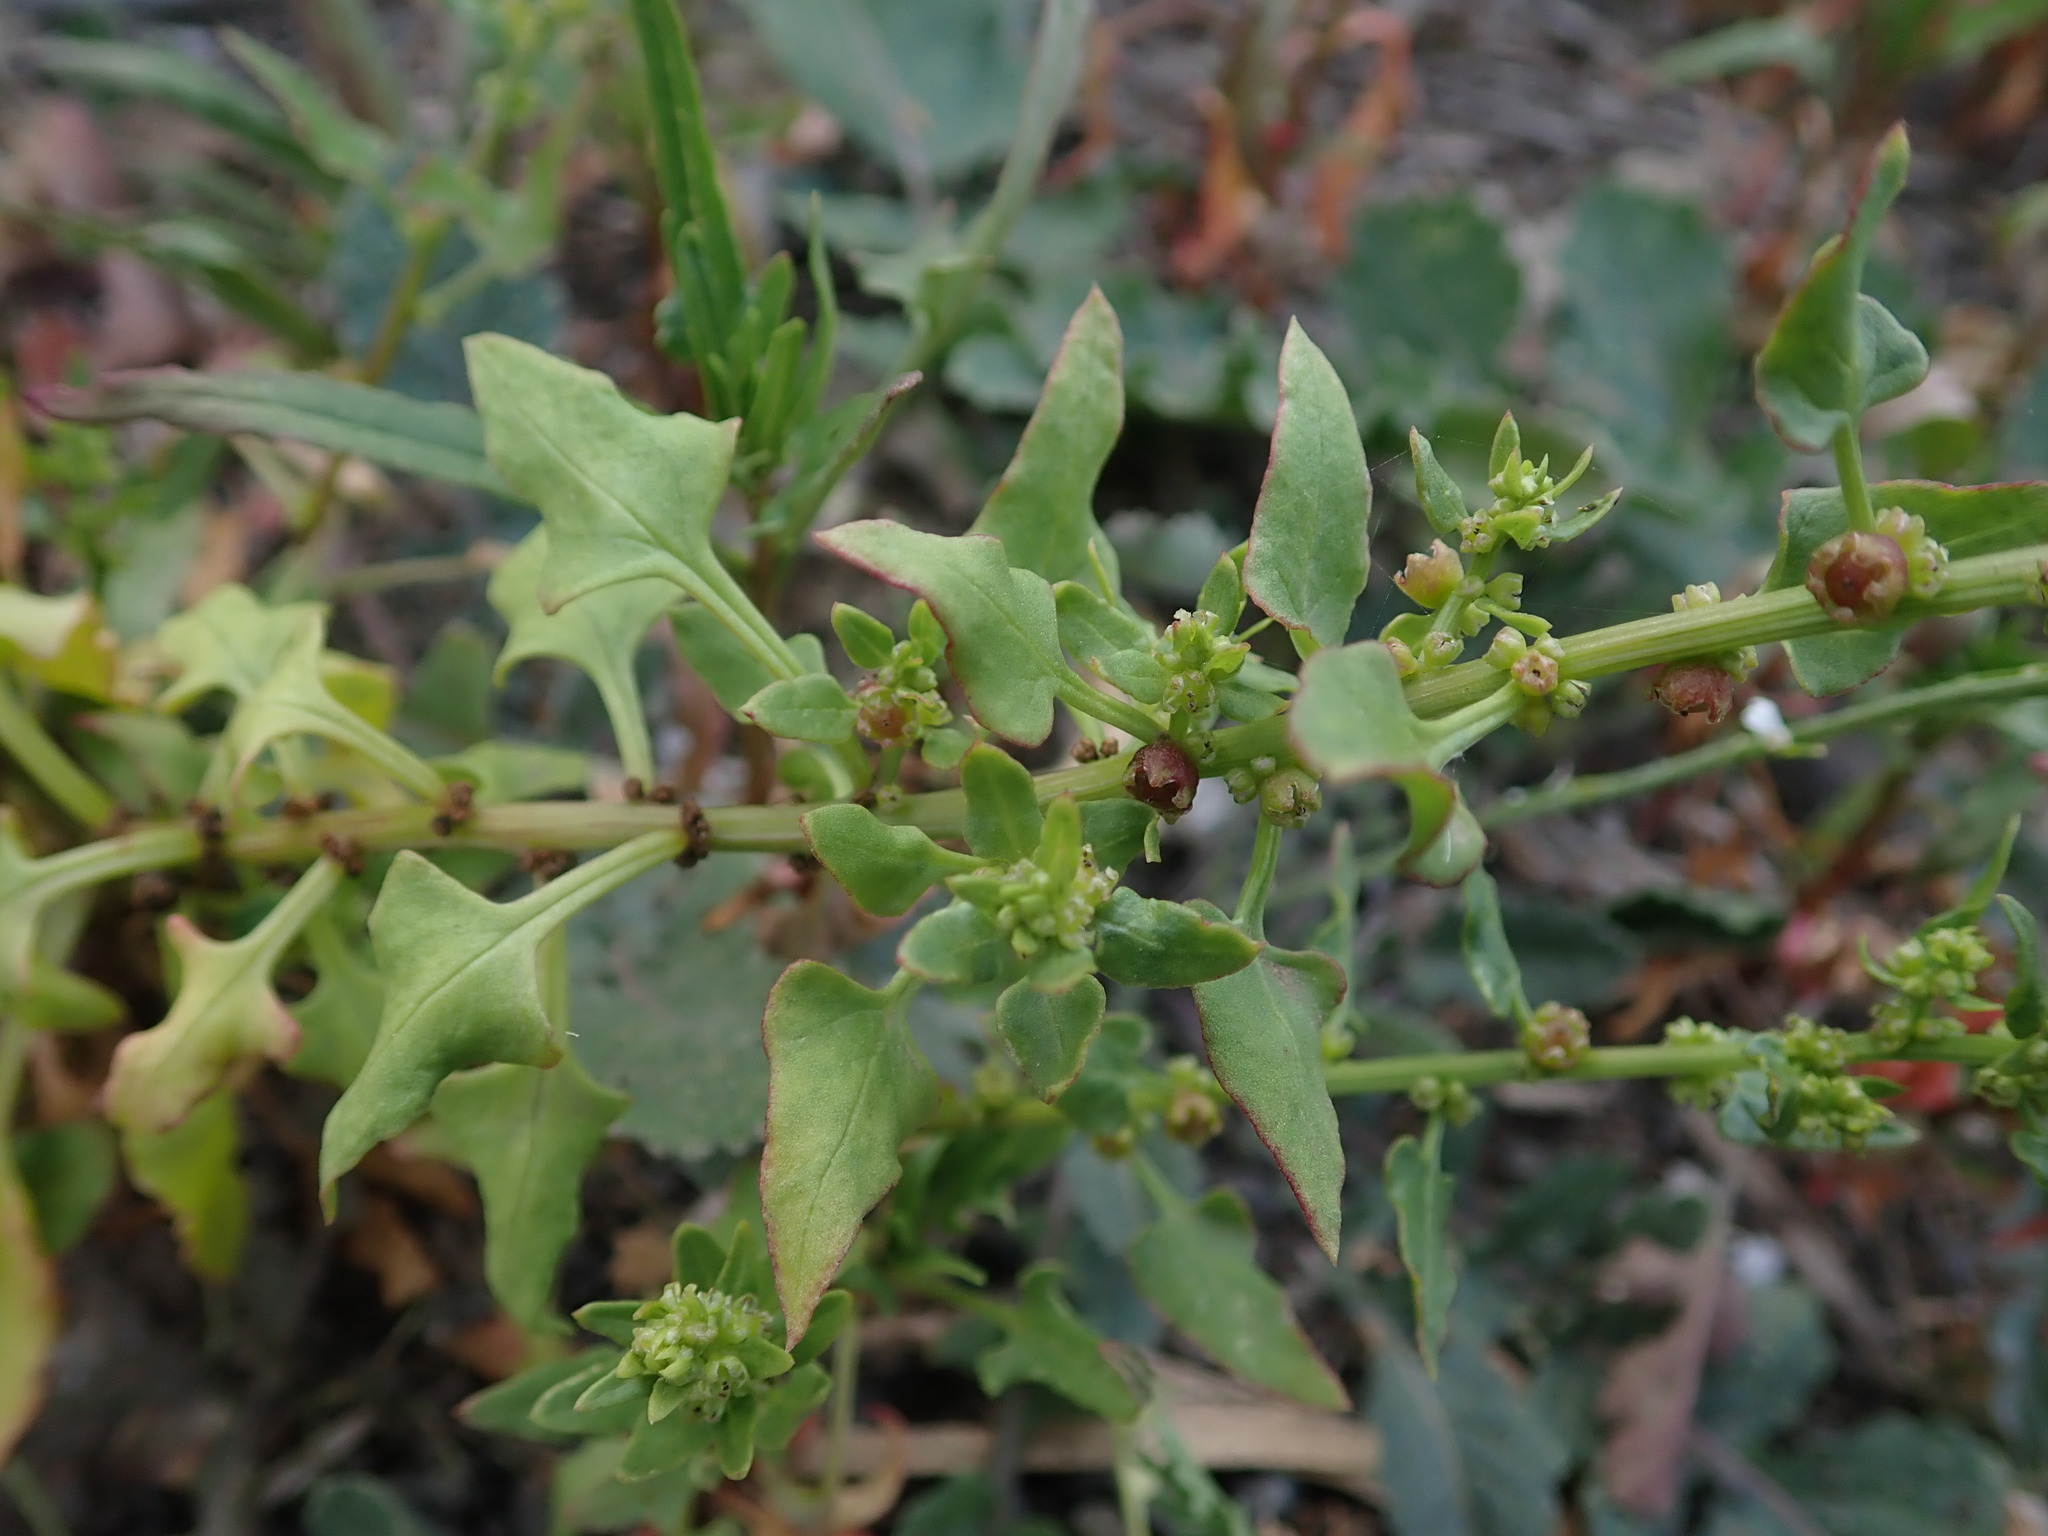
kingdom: Plantae
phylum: Tracheophyta
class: Magnoliopsida
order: Caryophyllales
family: Amaranthaceae
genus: Patellifolia
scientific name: Patellifolia procumbens
